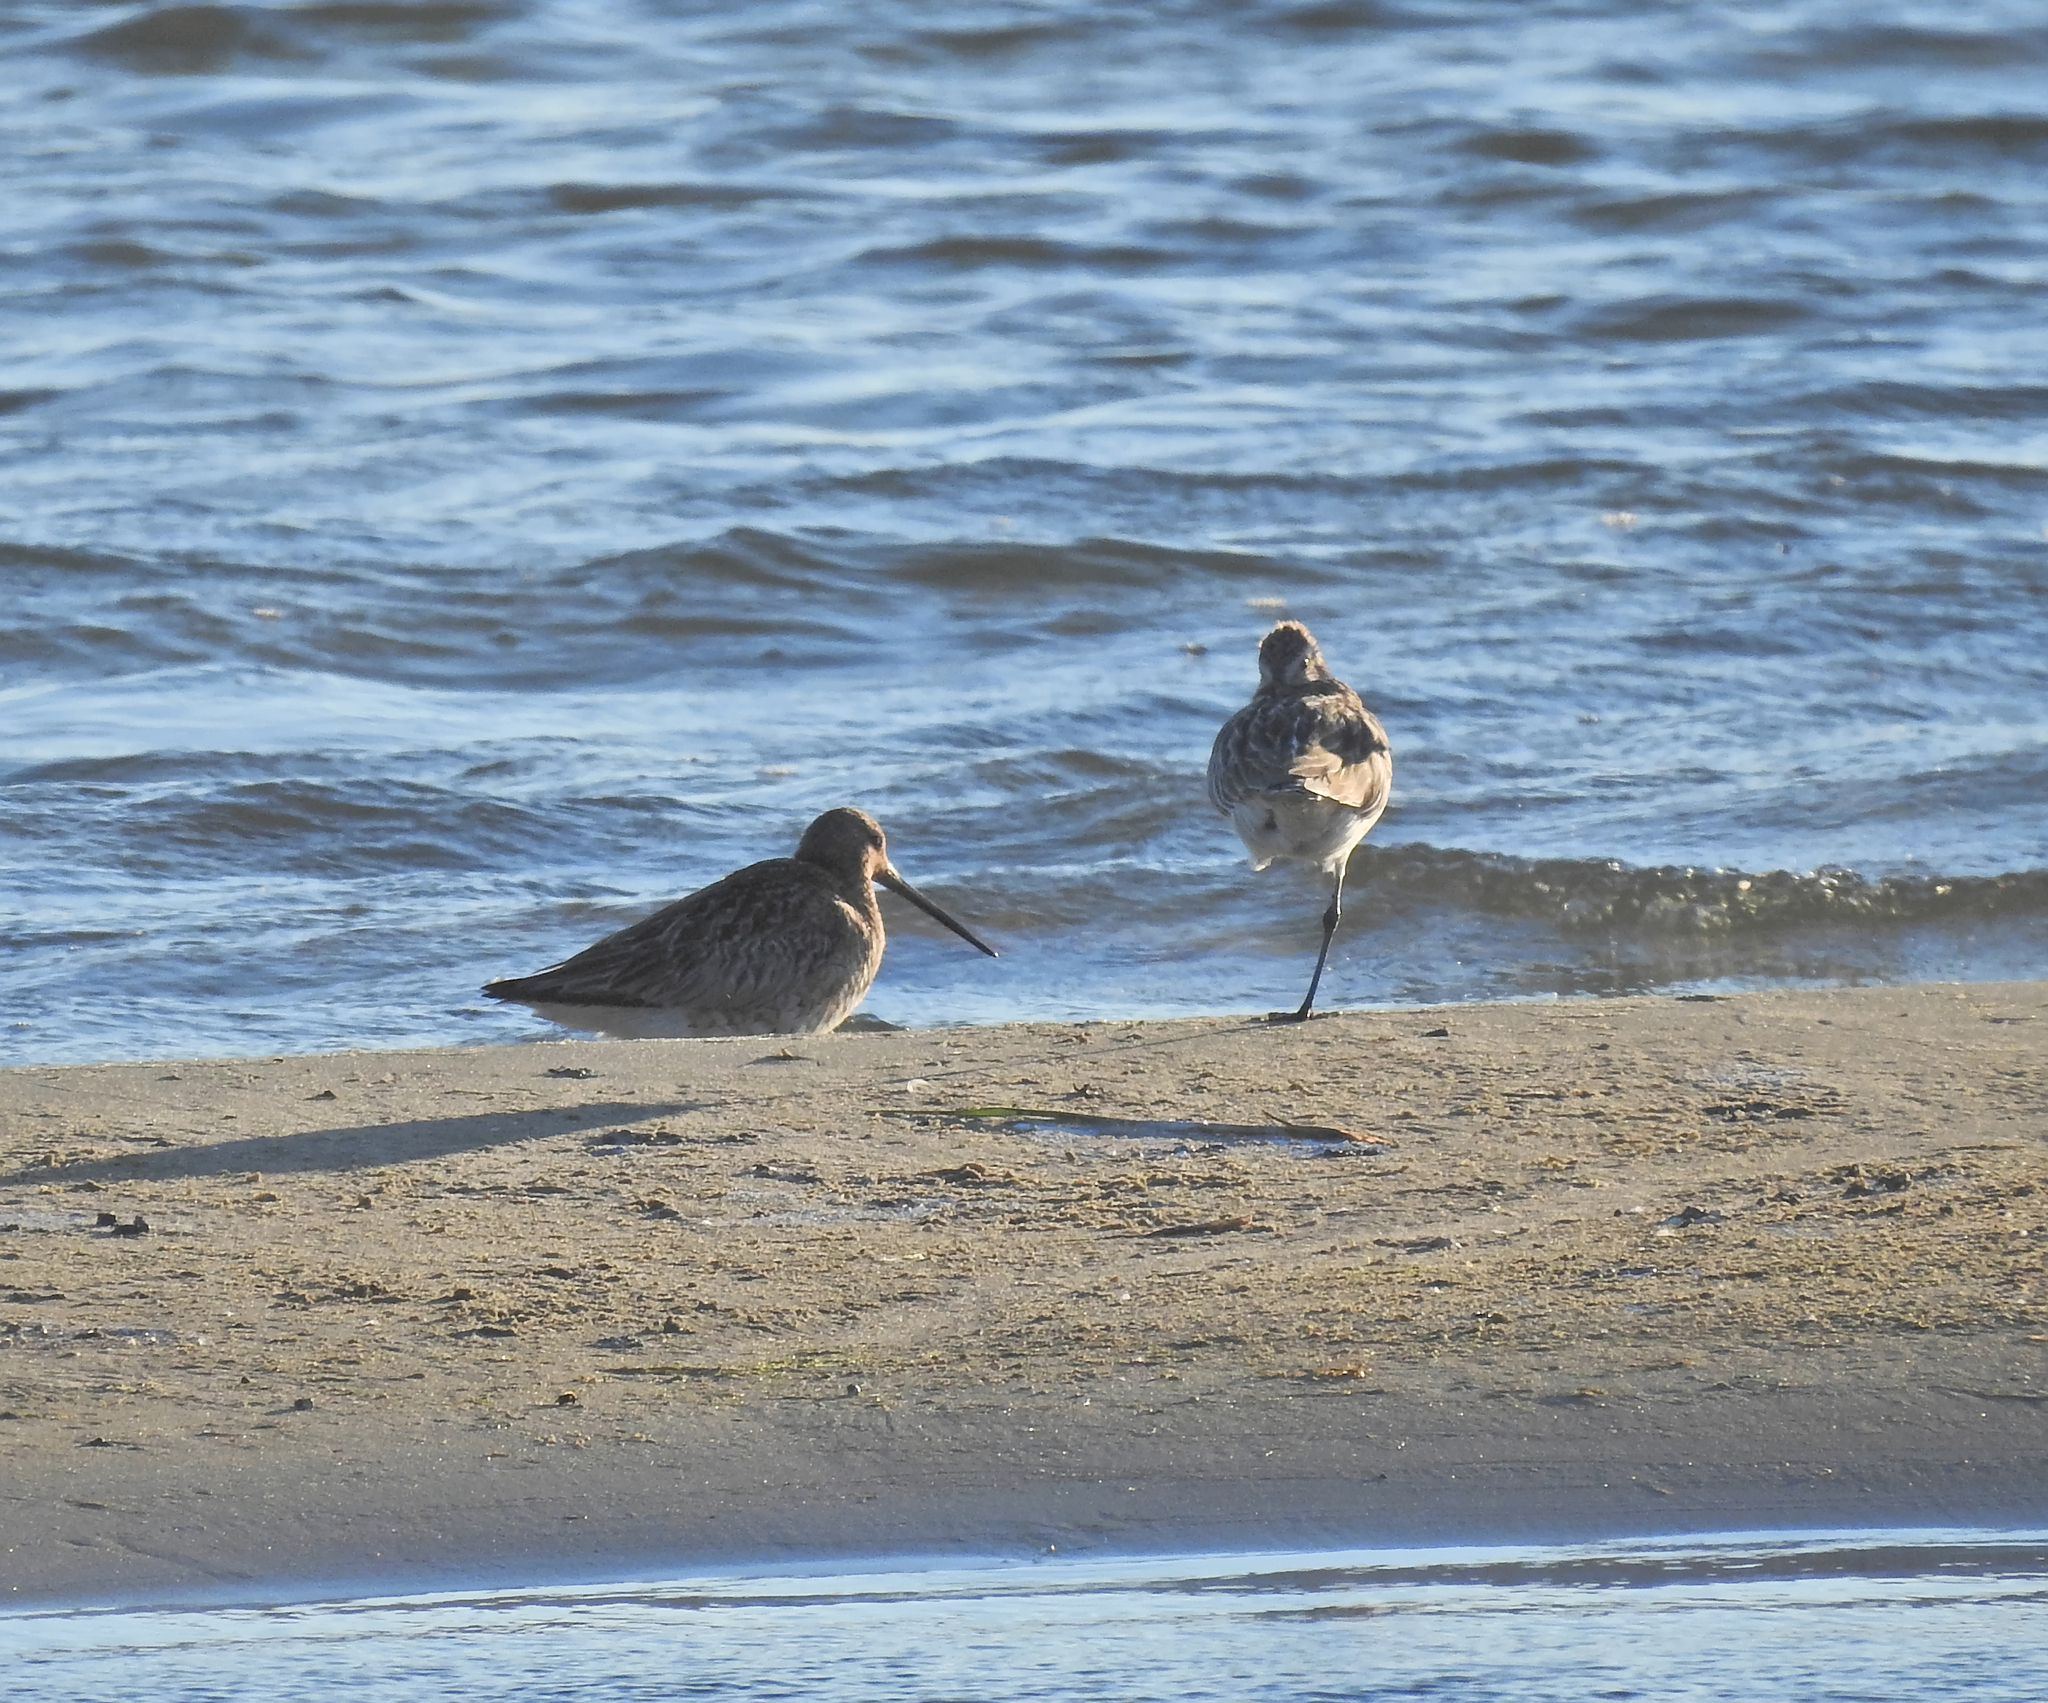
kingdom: Animalia
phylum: Chordata
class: Aves
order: Charadriiformes
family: Scolopacidae
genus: Limosa
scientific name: Limosa lapponica
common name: Bar-tailed godwit
